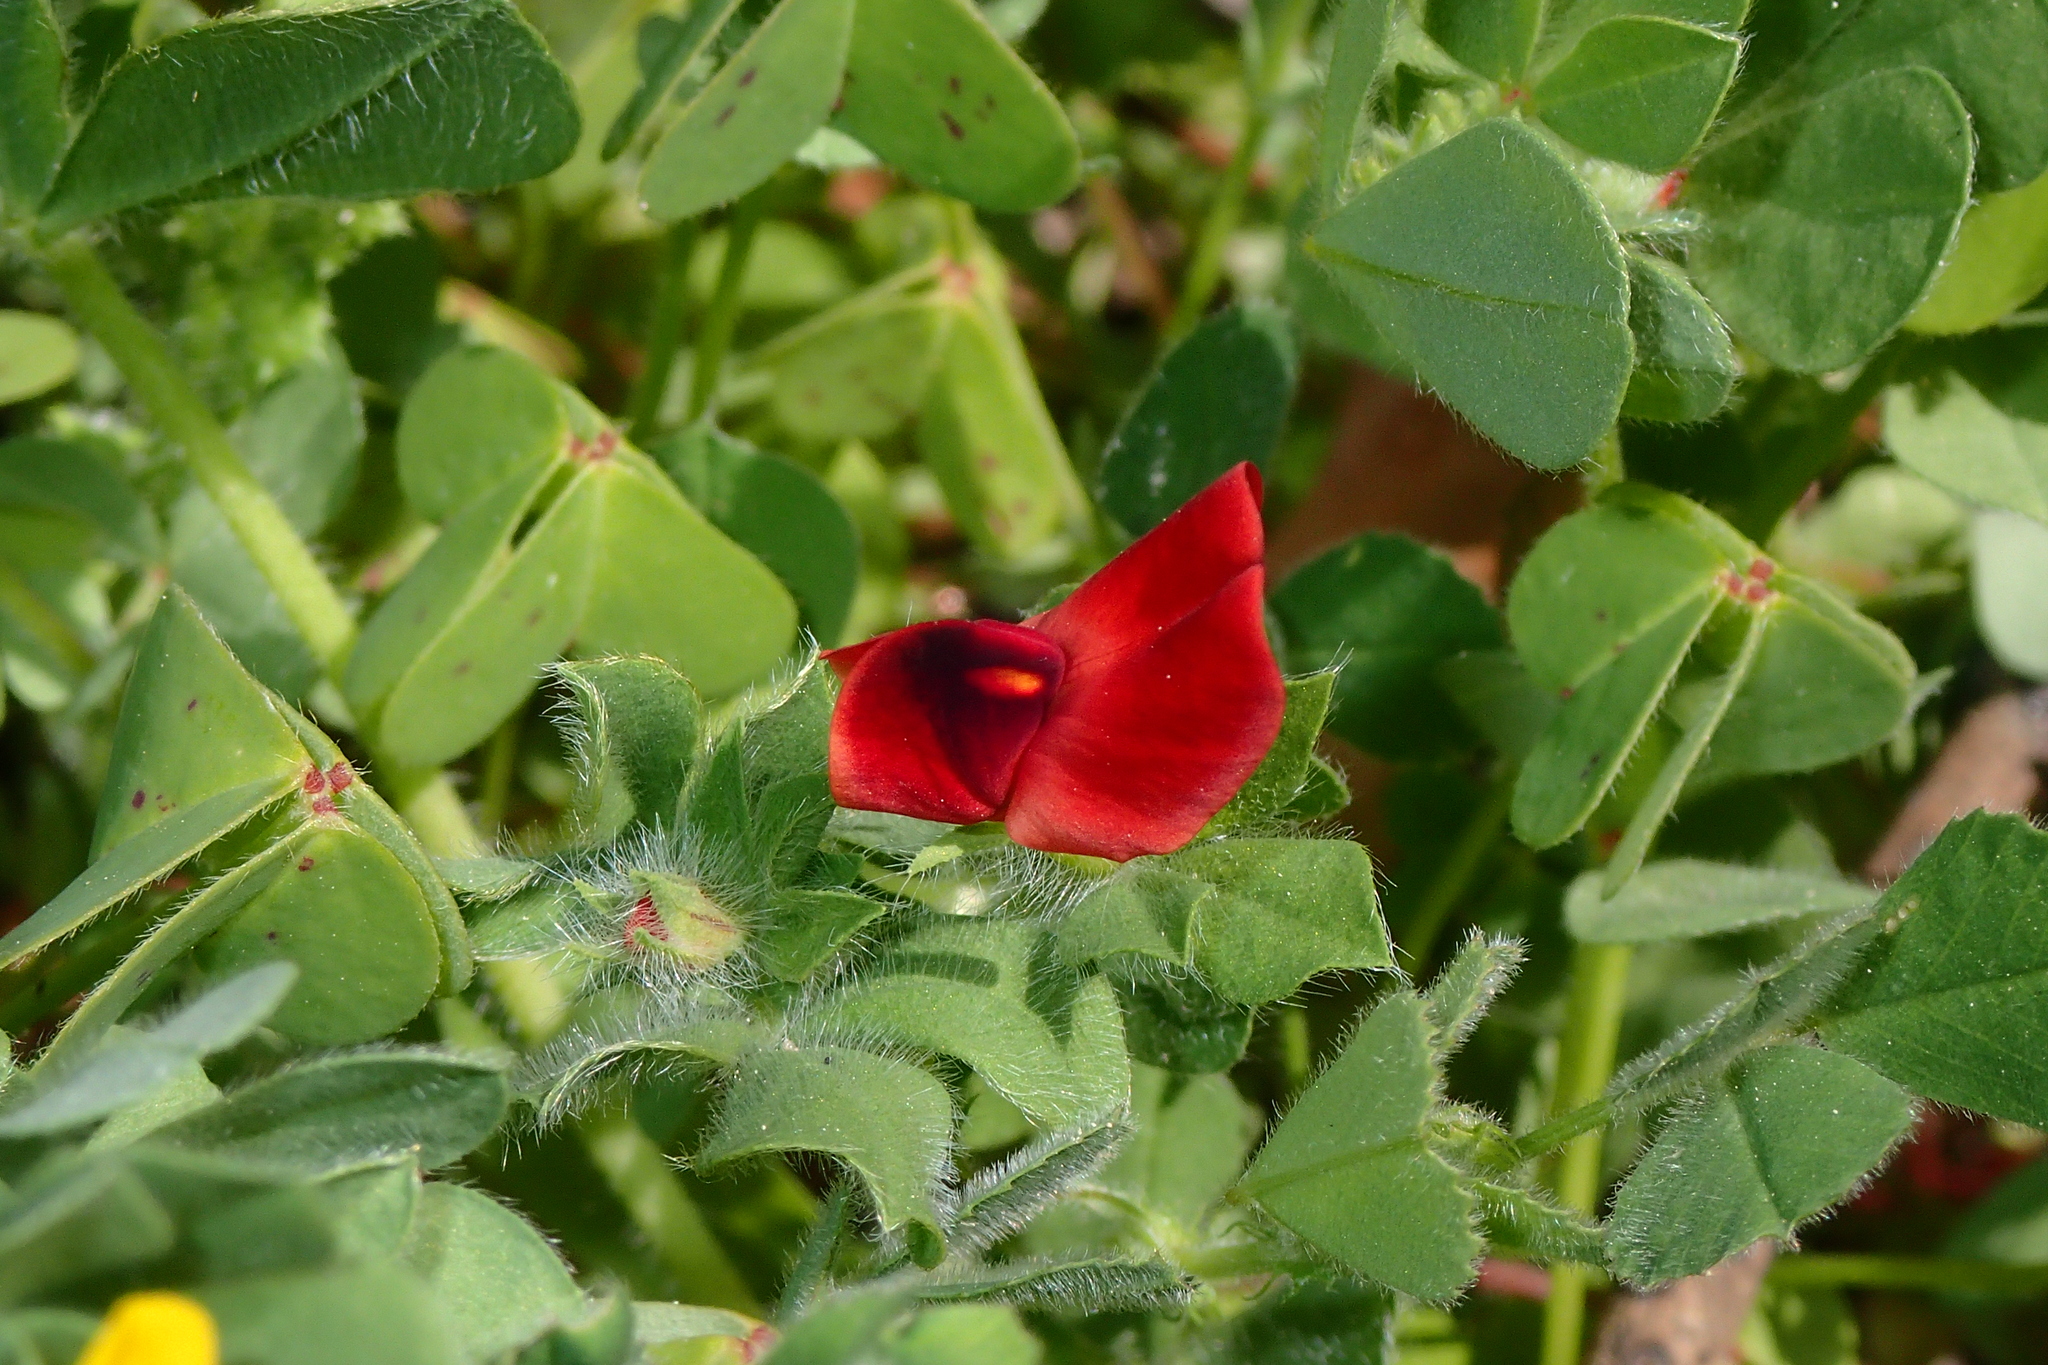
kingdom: Plantae
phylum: Tracheophyta
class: Magnoliopsida
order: Fabales
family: Fabaceae
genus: Lotus
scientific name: Lotus tetragonolobus
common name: Asparagus-pea
